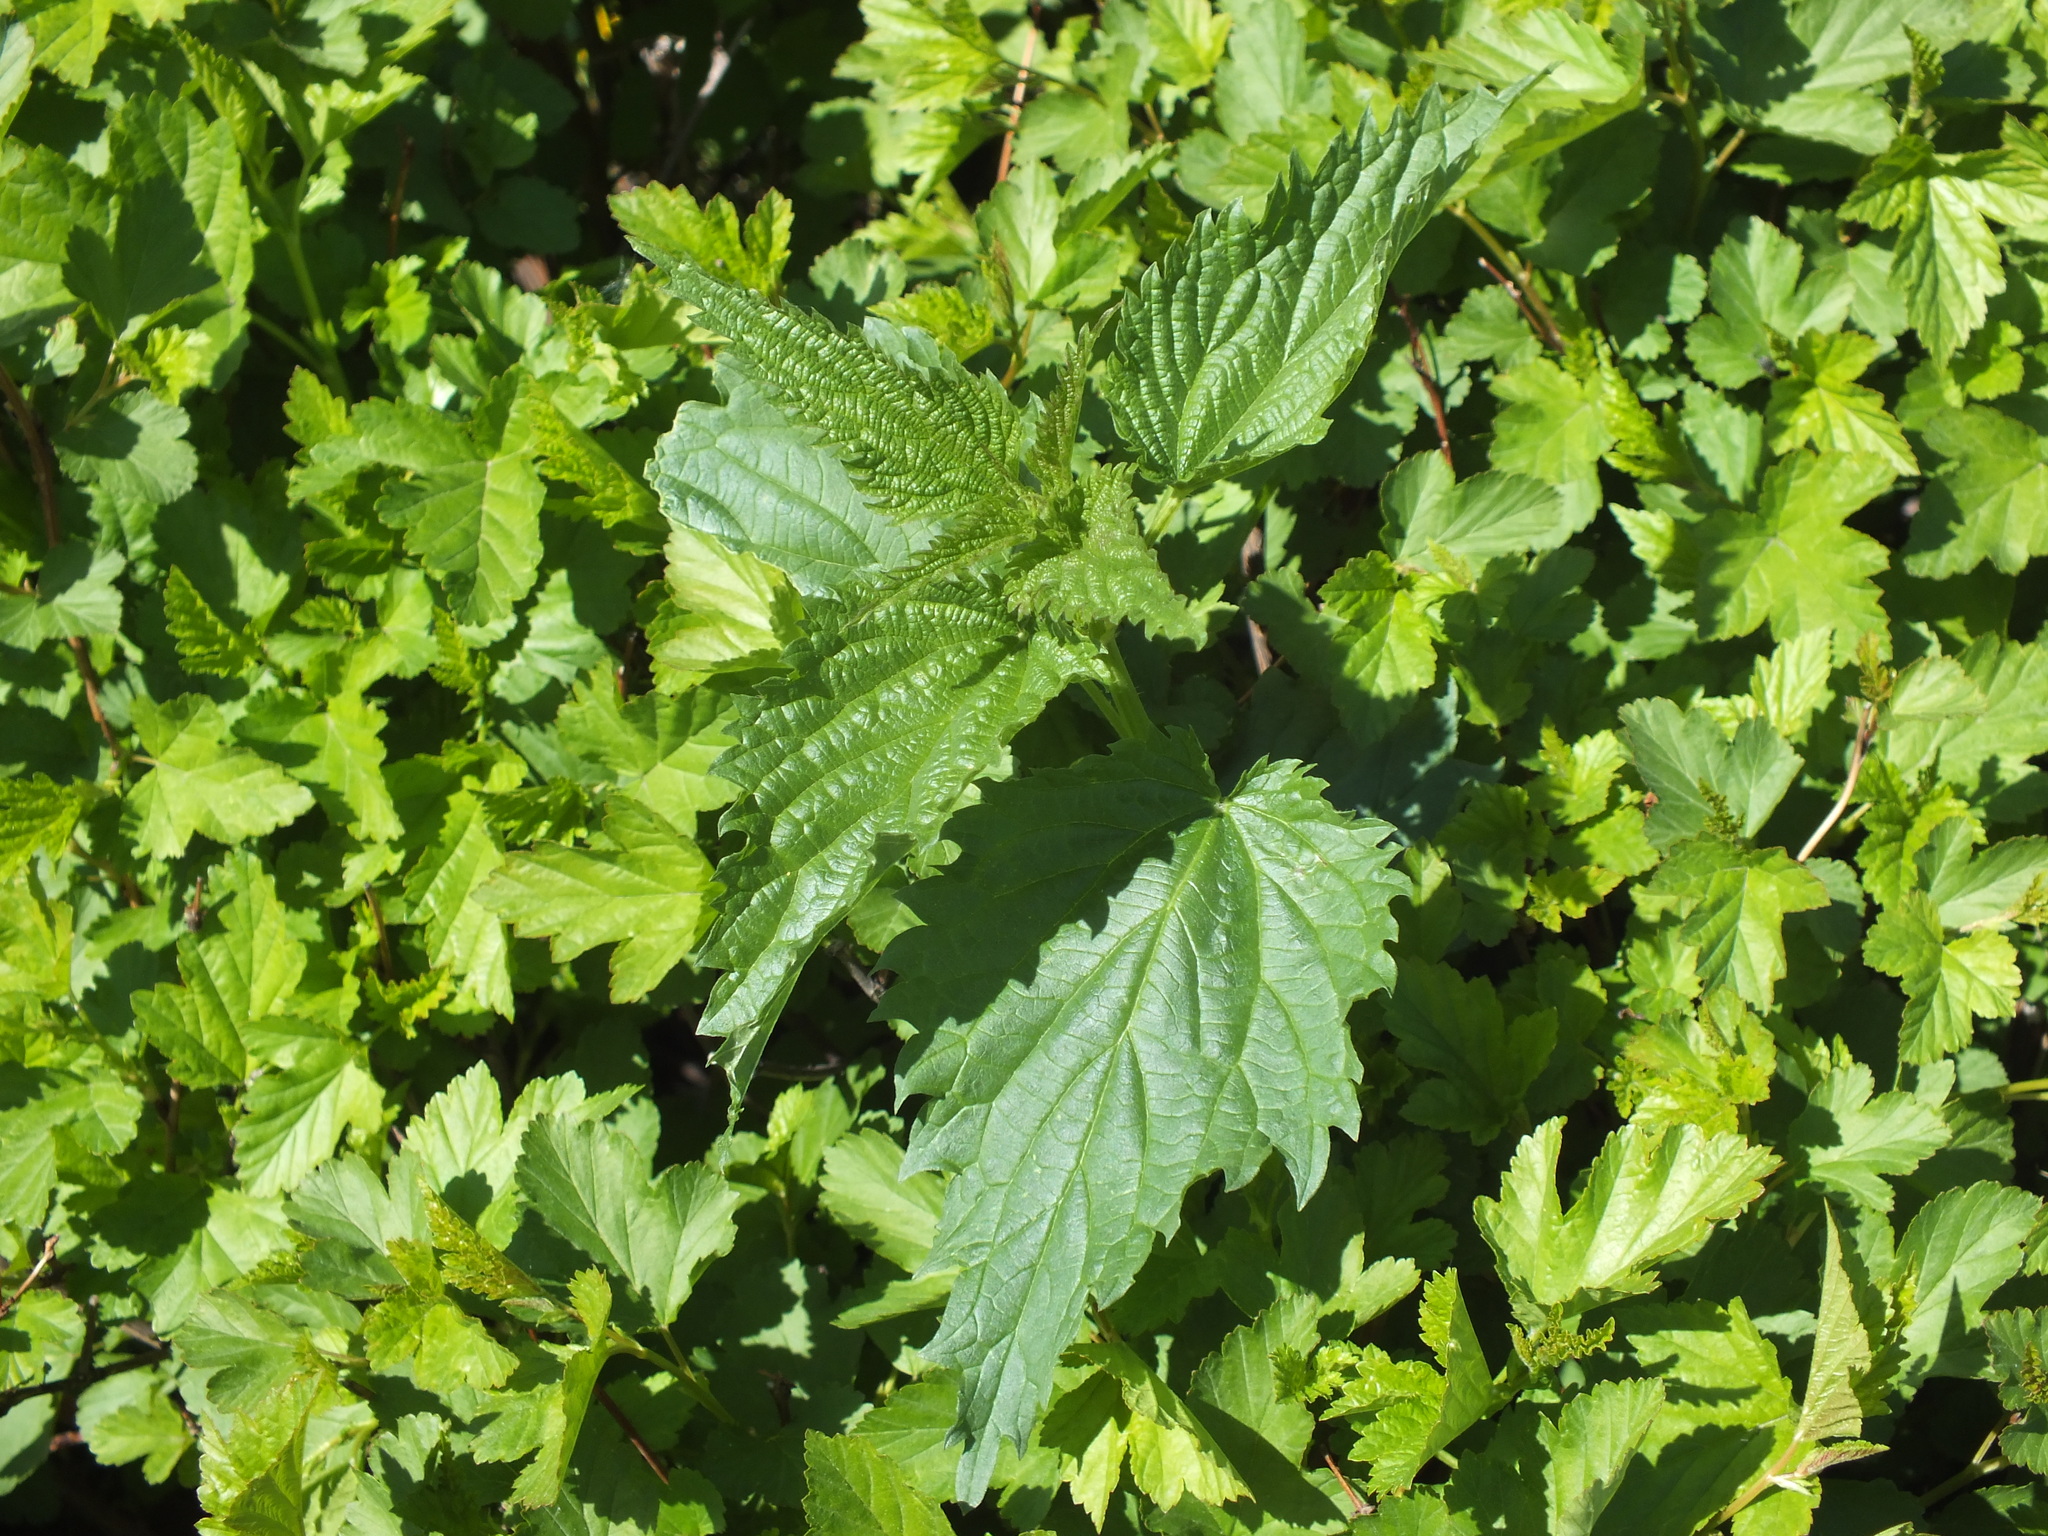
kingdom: Plantae
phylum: Tracheophyta
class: Magnoliopsida
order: Rosales
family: Urticaceae
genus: Urtica
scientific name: Urtica dioica
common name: Common nettle
